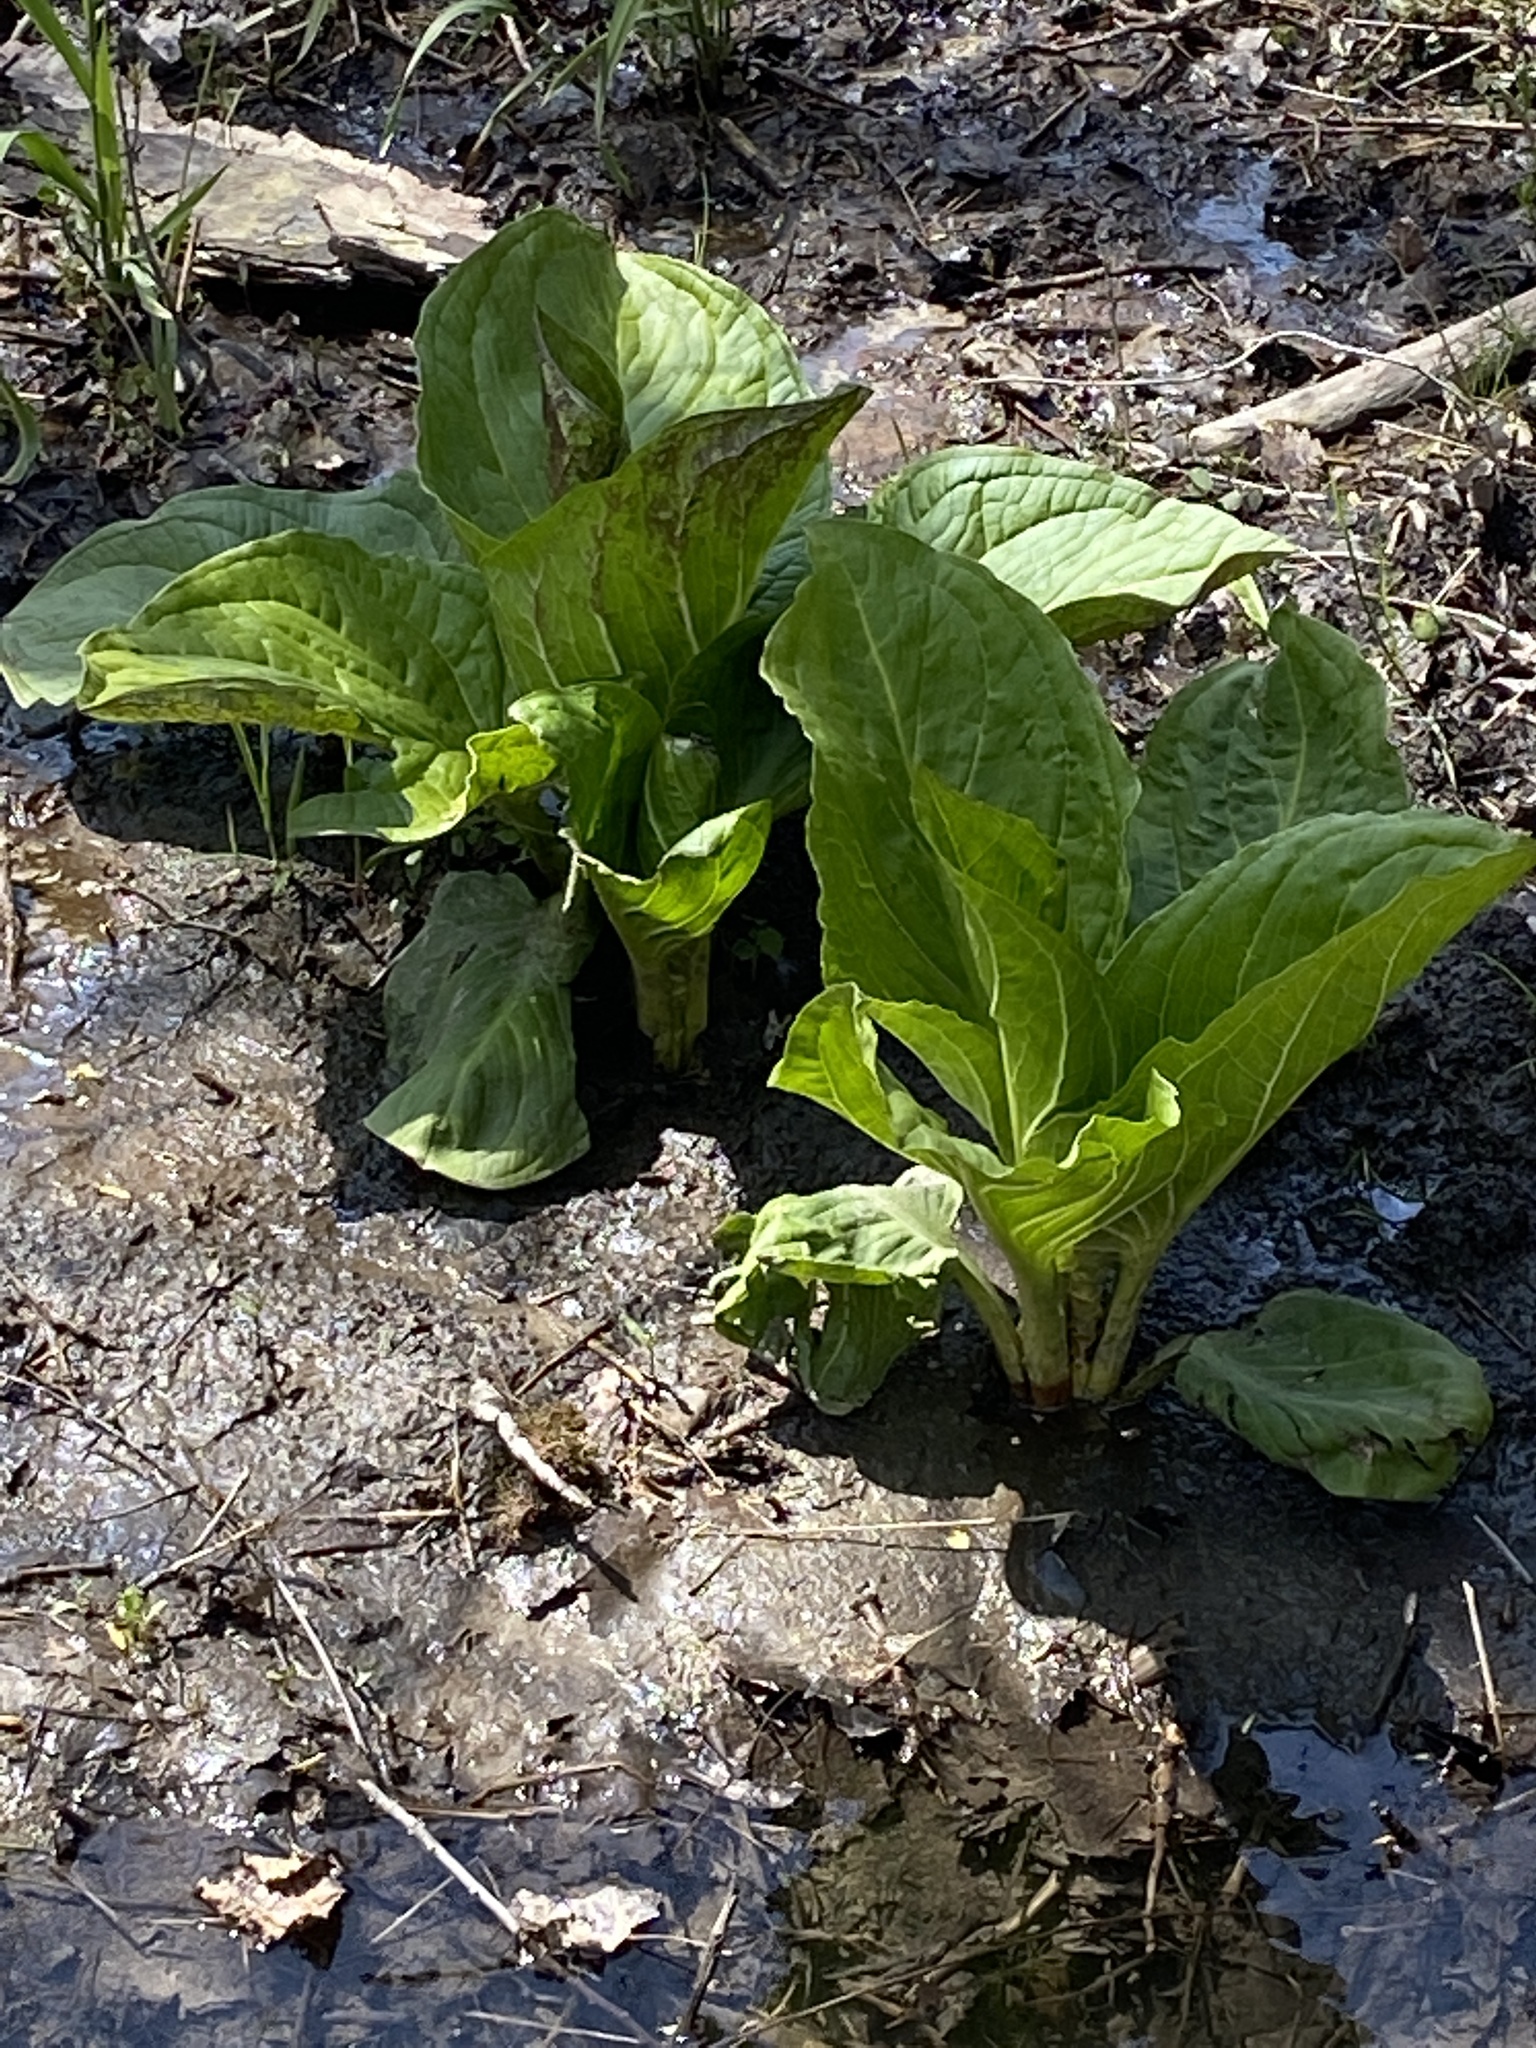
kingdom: Plantae
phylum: Tracheophyta
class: Liliopsida
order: Alismatales
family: Araceae
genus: Symplocarpus
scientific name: Symplocarpus foetidus
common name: Eastern skunk cabbage
